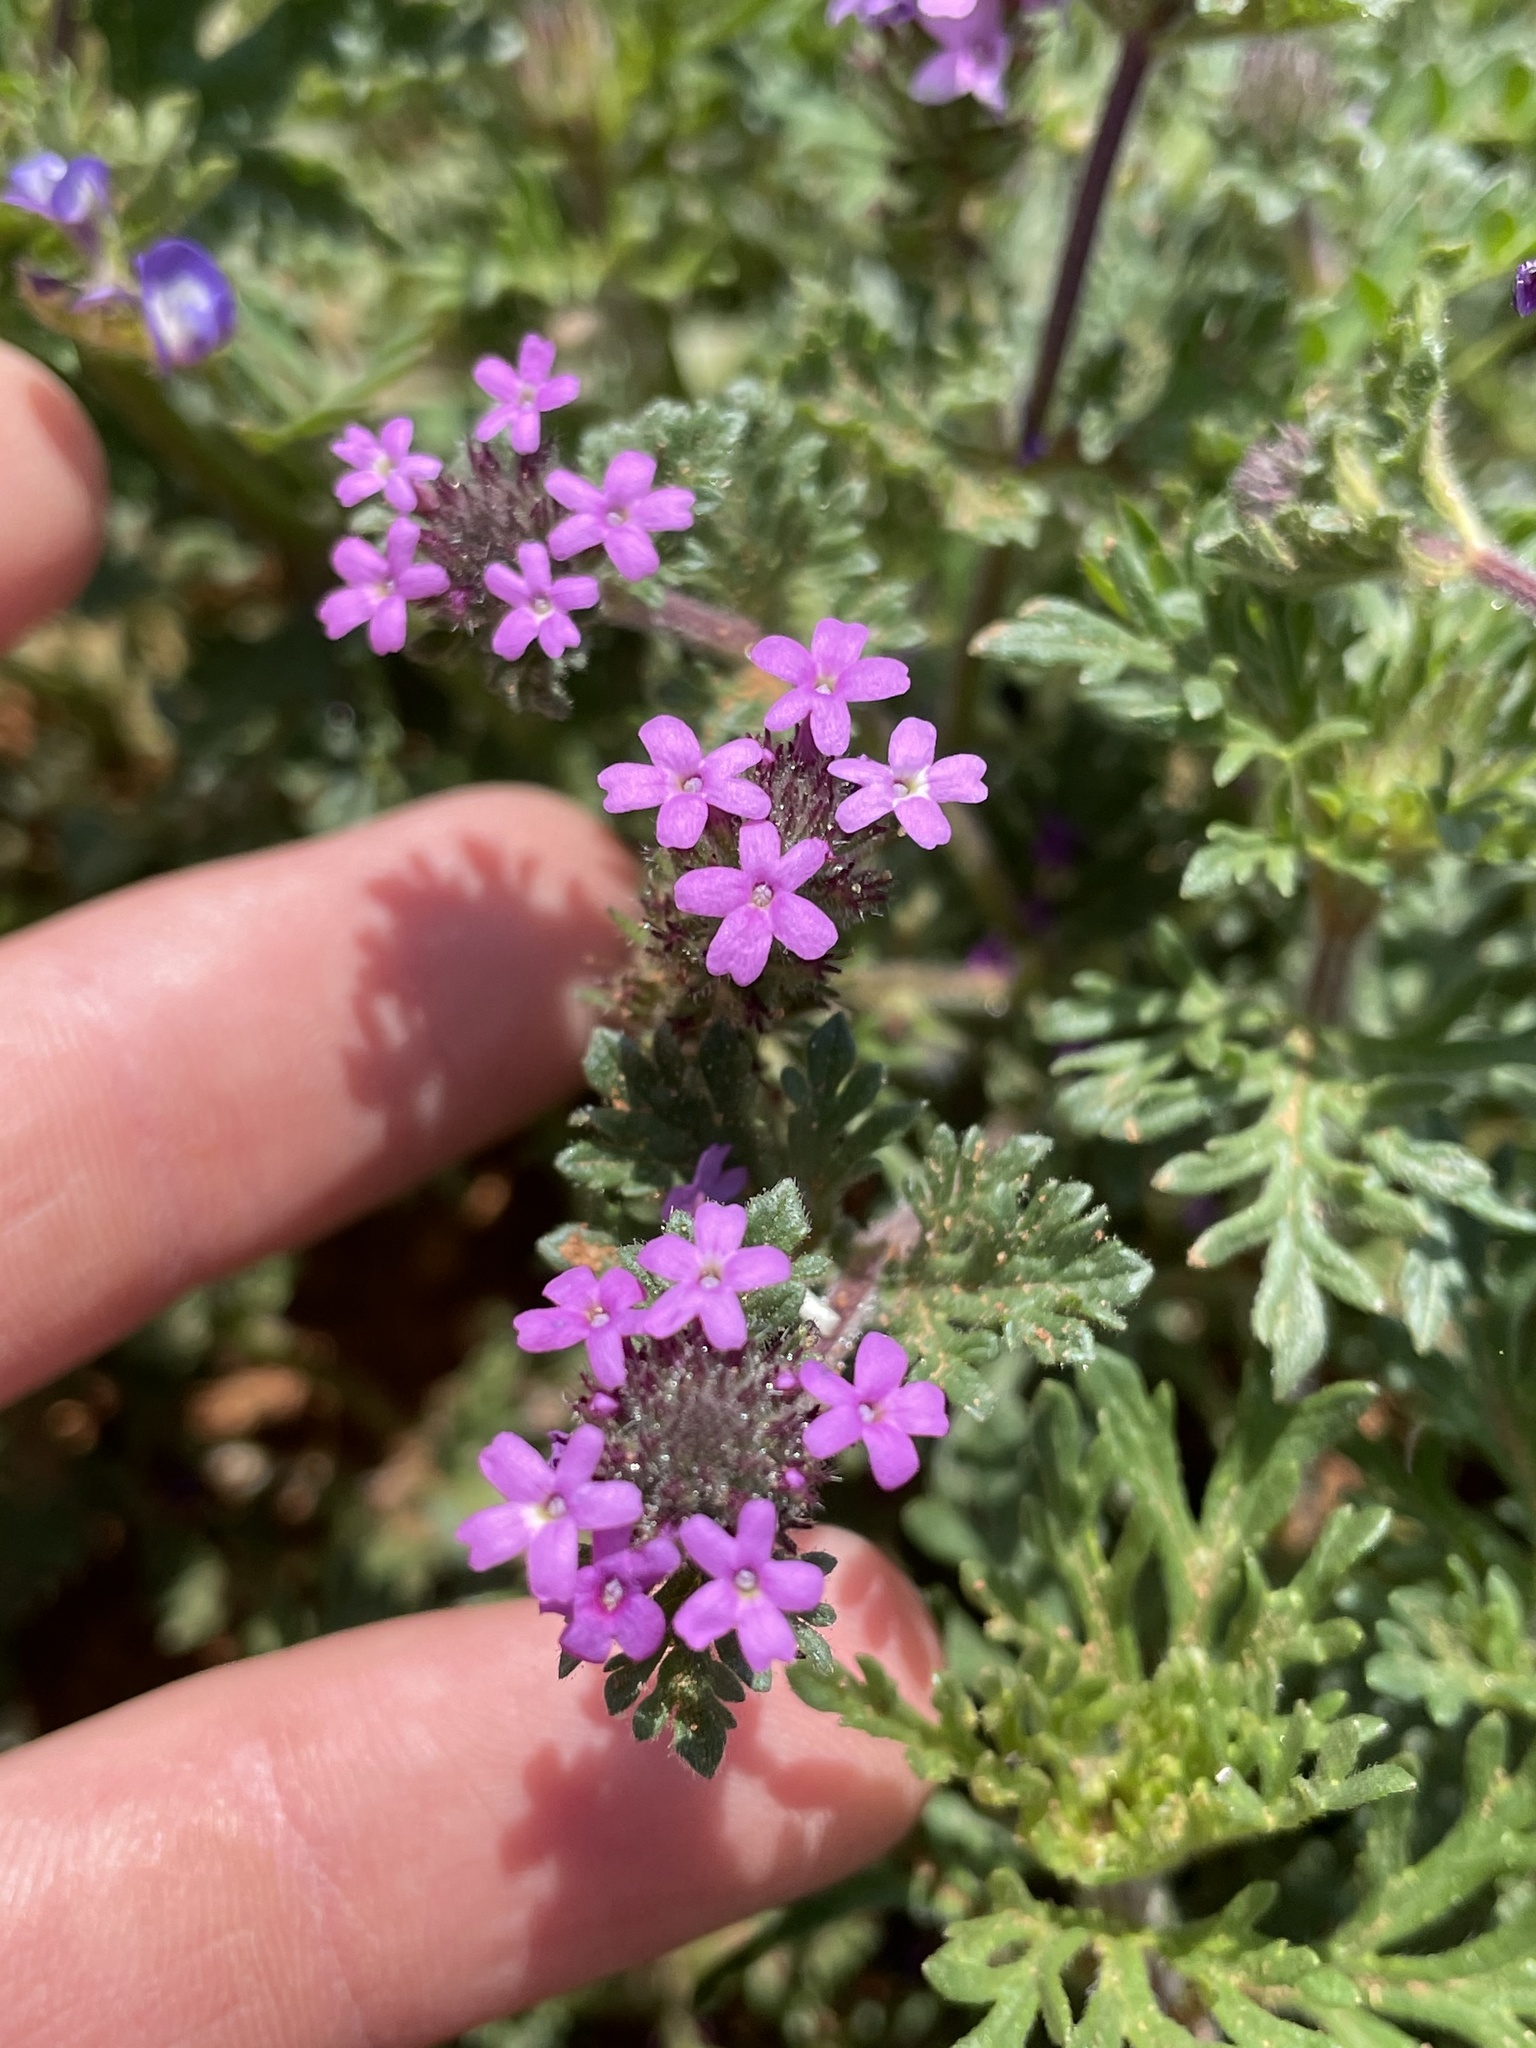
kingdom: Plantae
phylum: Tracheophyta
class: Magnoliopsida
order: Lamiales
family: Verbenaceae
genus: Verbena
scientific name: Verbena pumila
